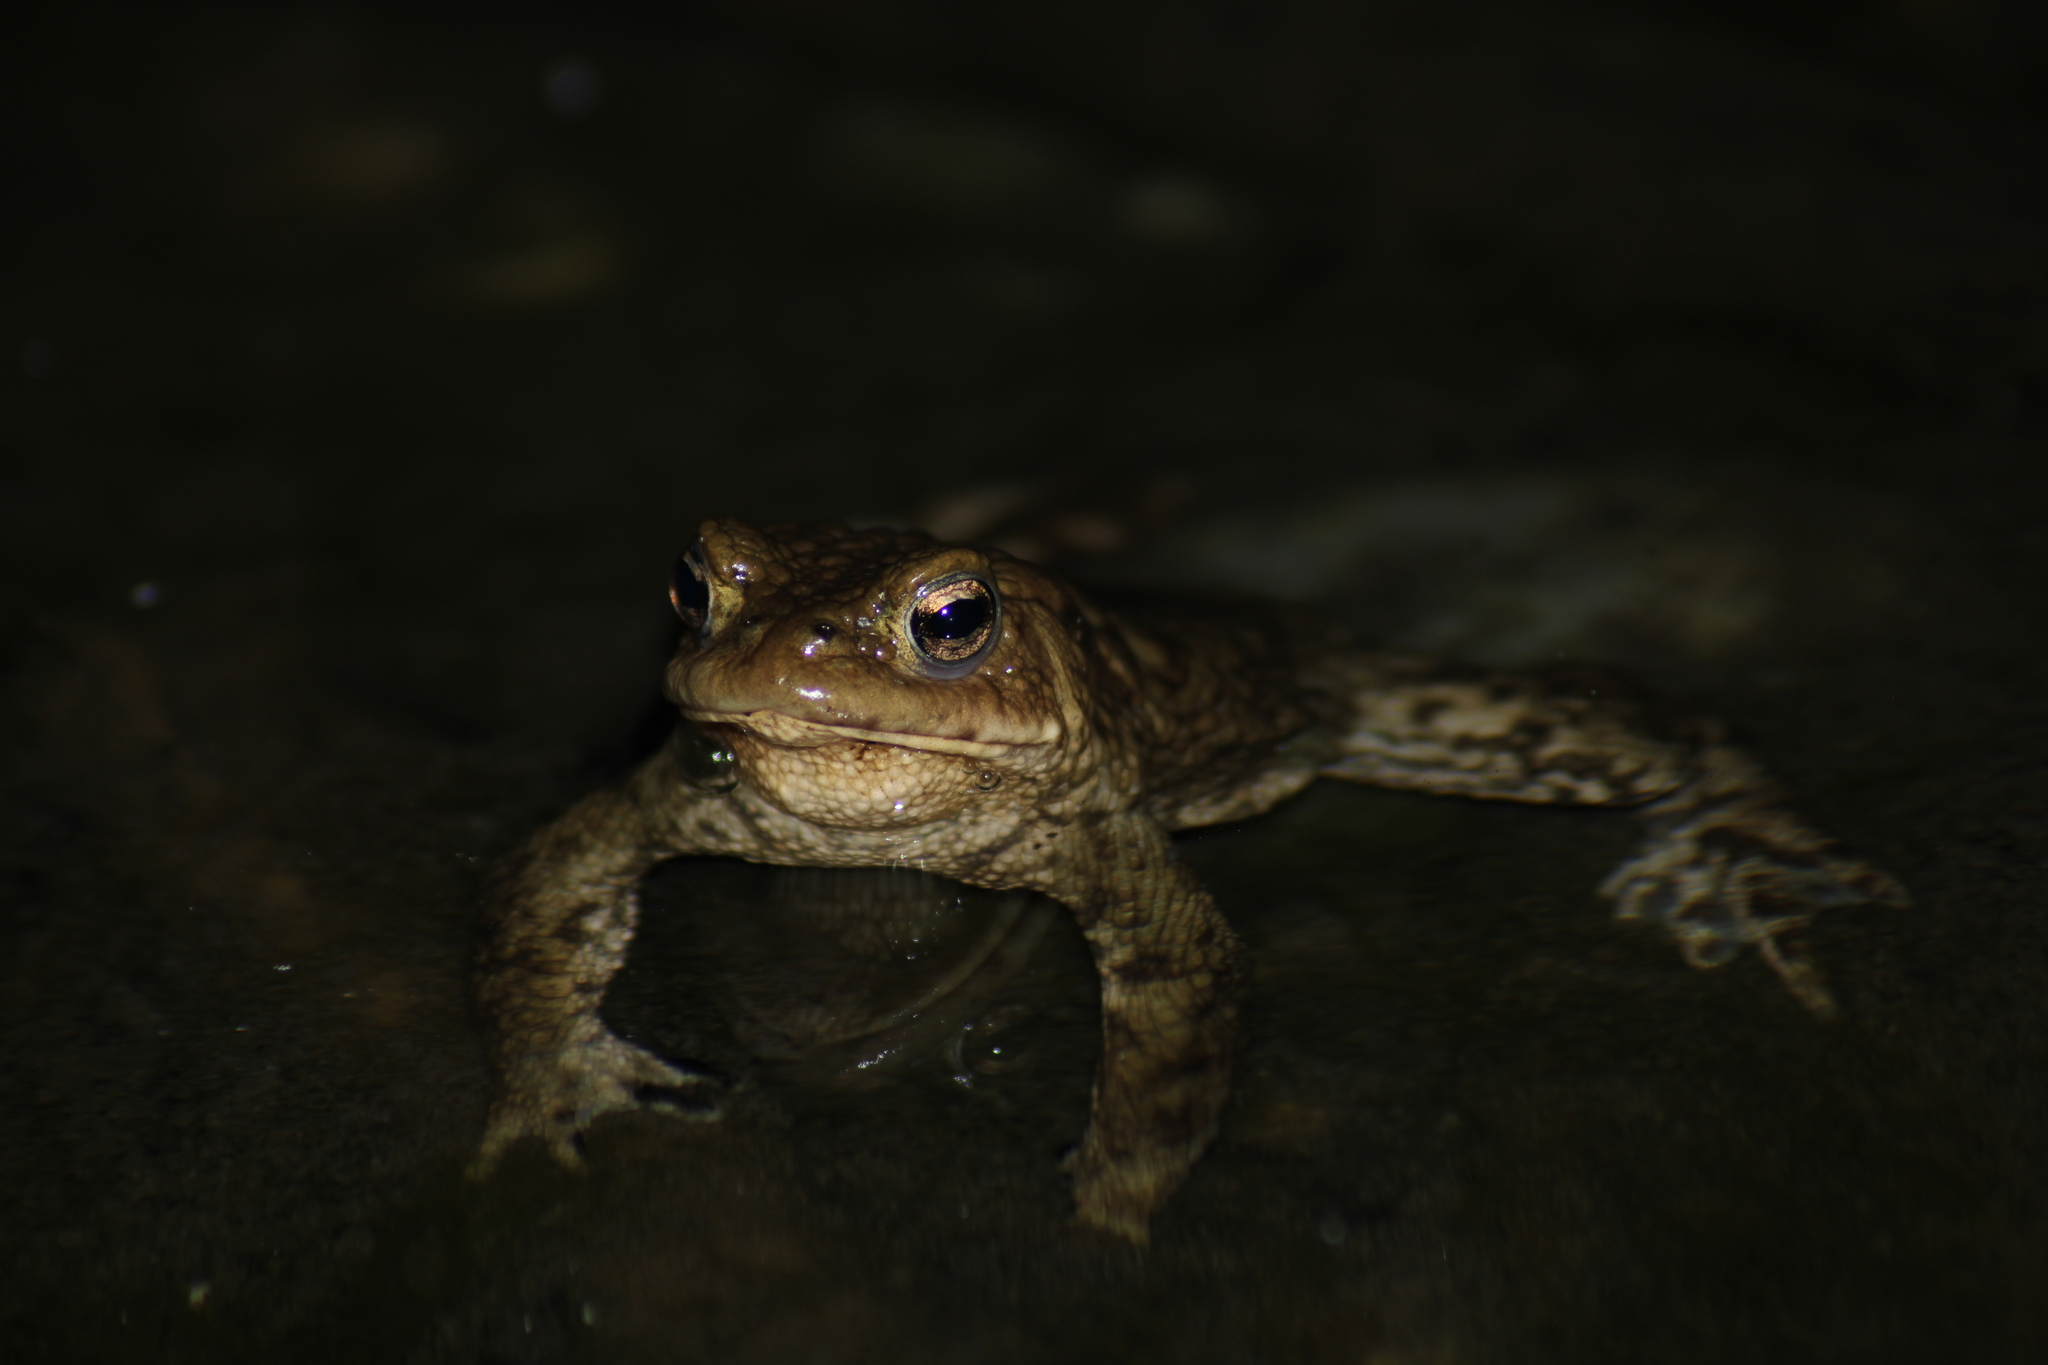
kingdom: Animalia
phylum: Chordata
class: Amphibia
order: Anura
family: Bufonidae
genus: Bufo
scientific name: Bufo bufo
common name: Common toad
